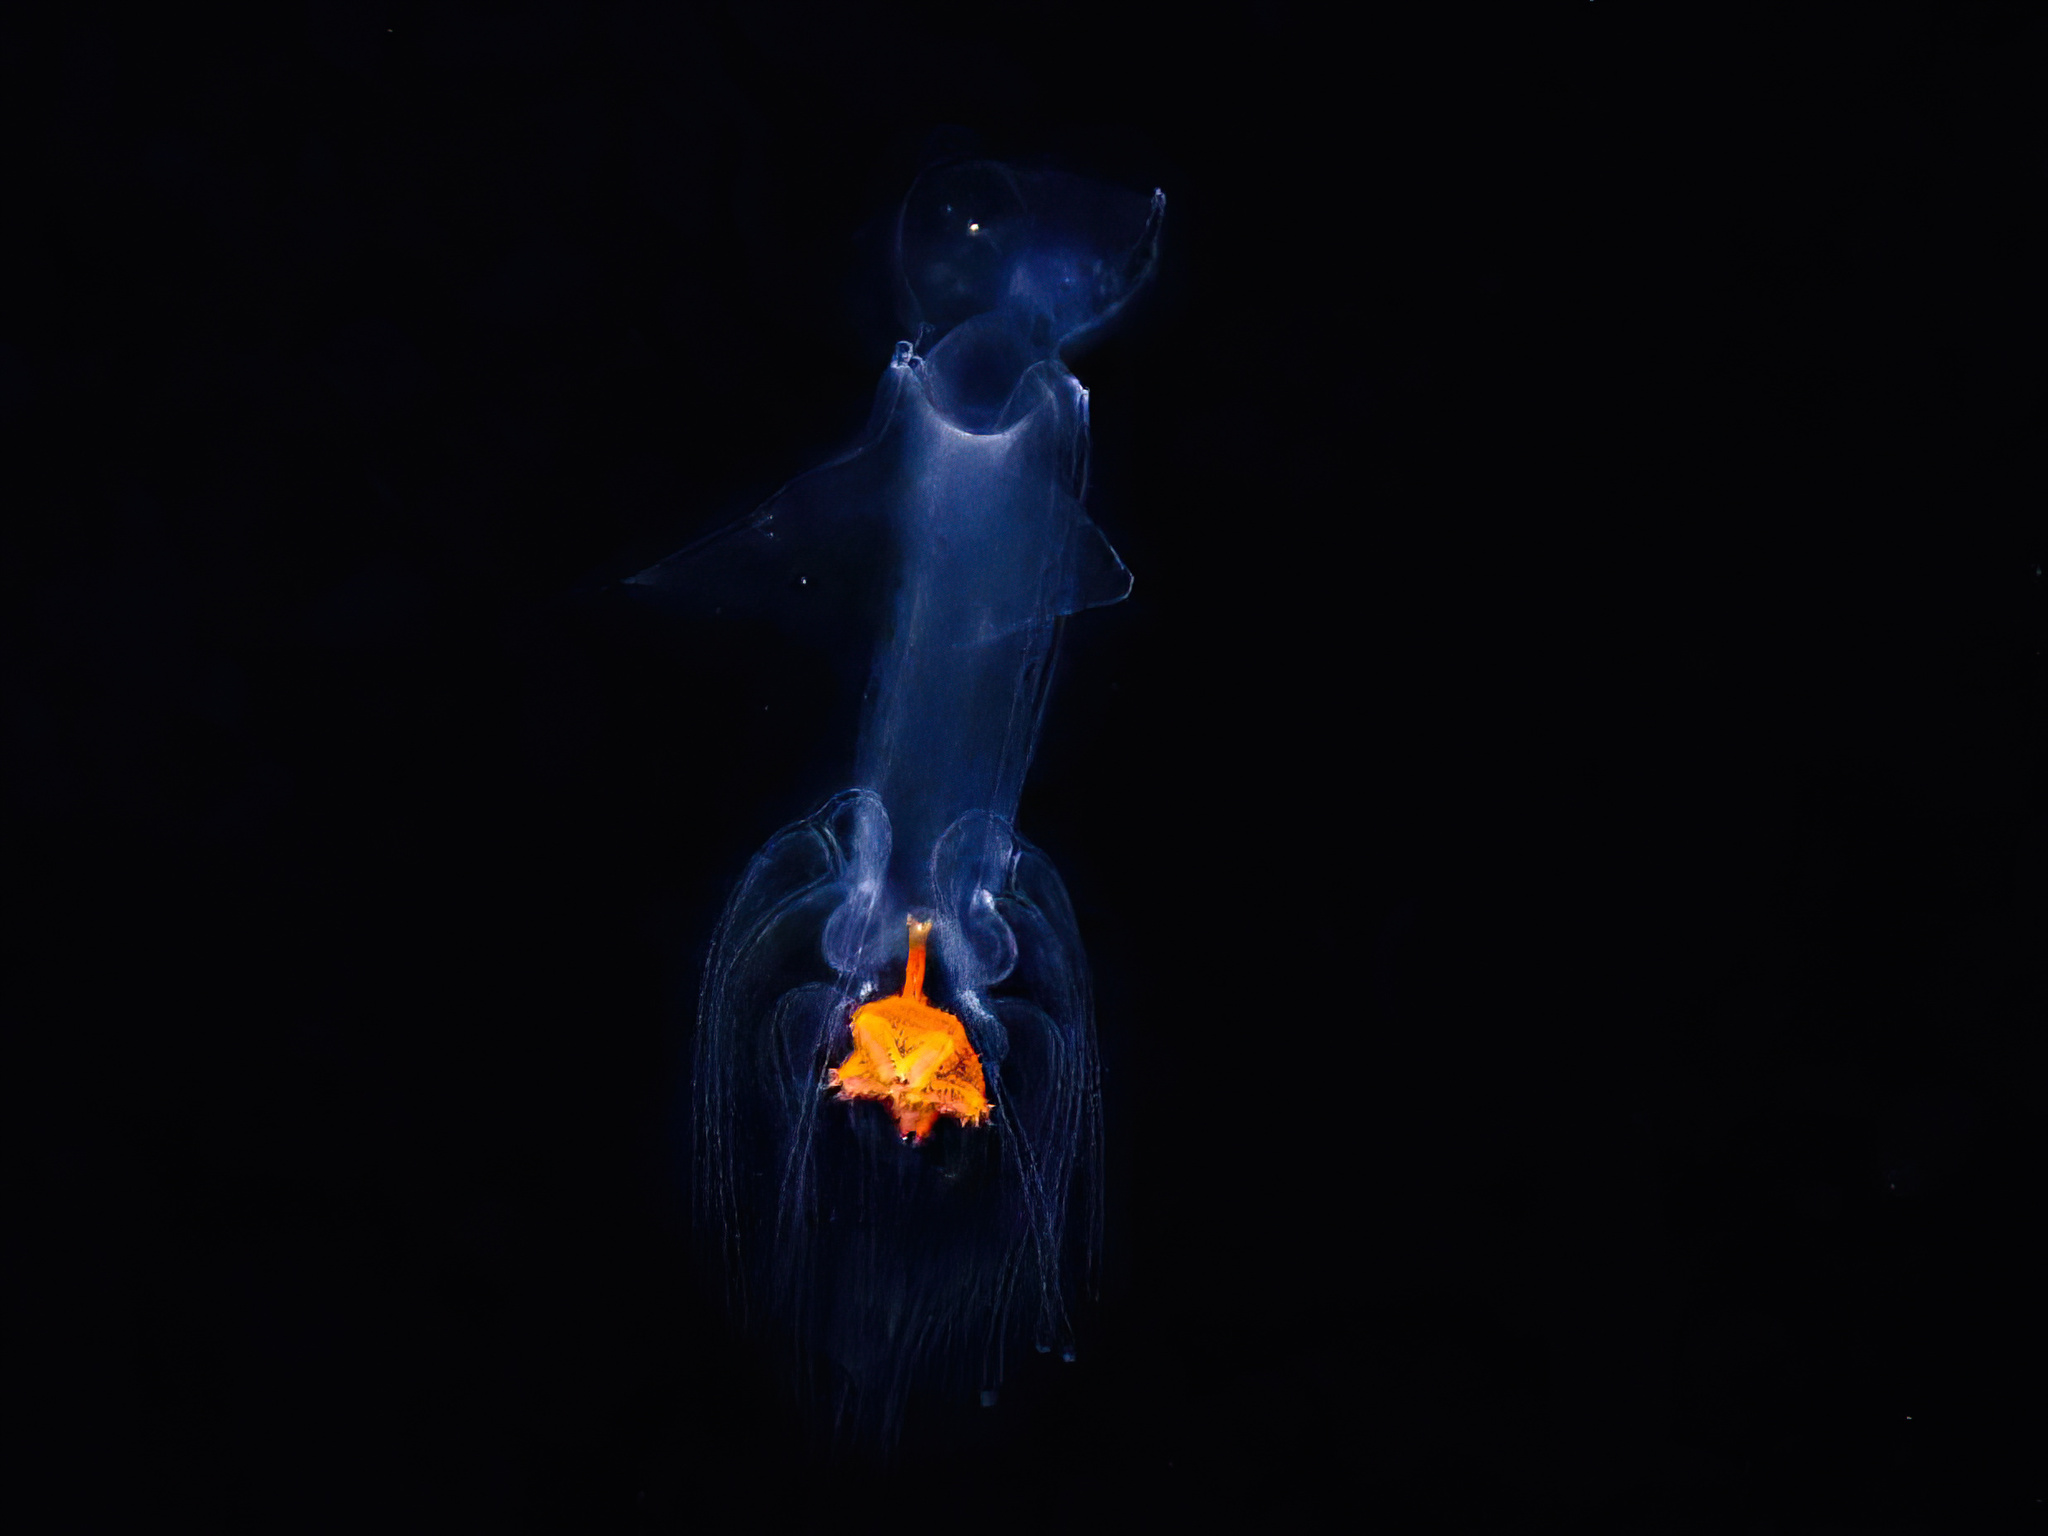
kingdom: Animalia
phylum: Echinodermata
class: Asteroidea
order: Paxillosida
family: Luidiidae
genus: Luidia
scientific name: Luidia sarsii
